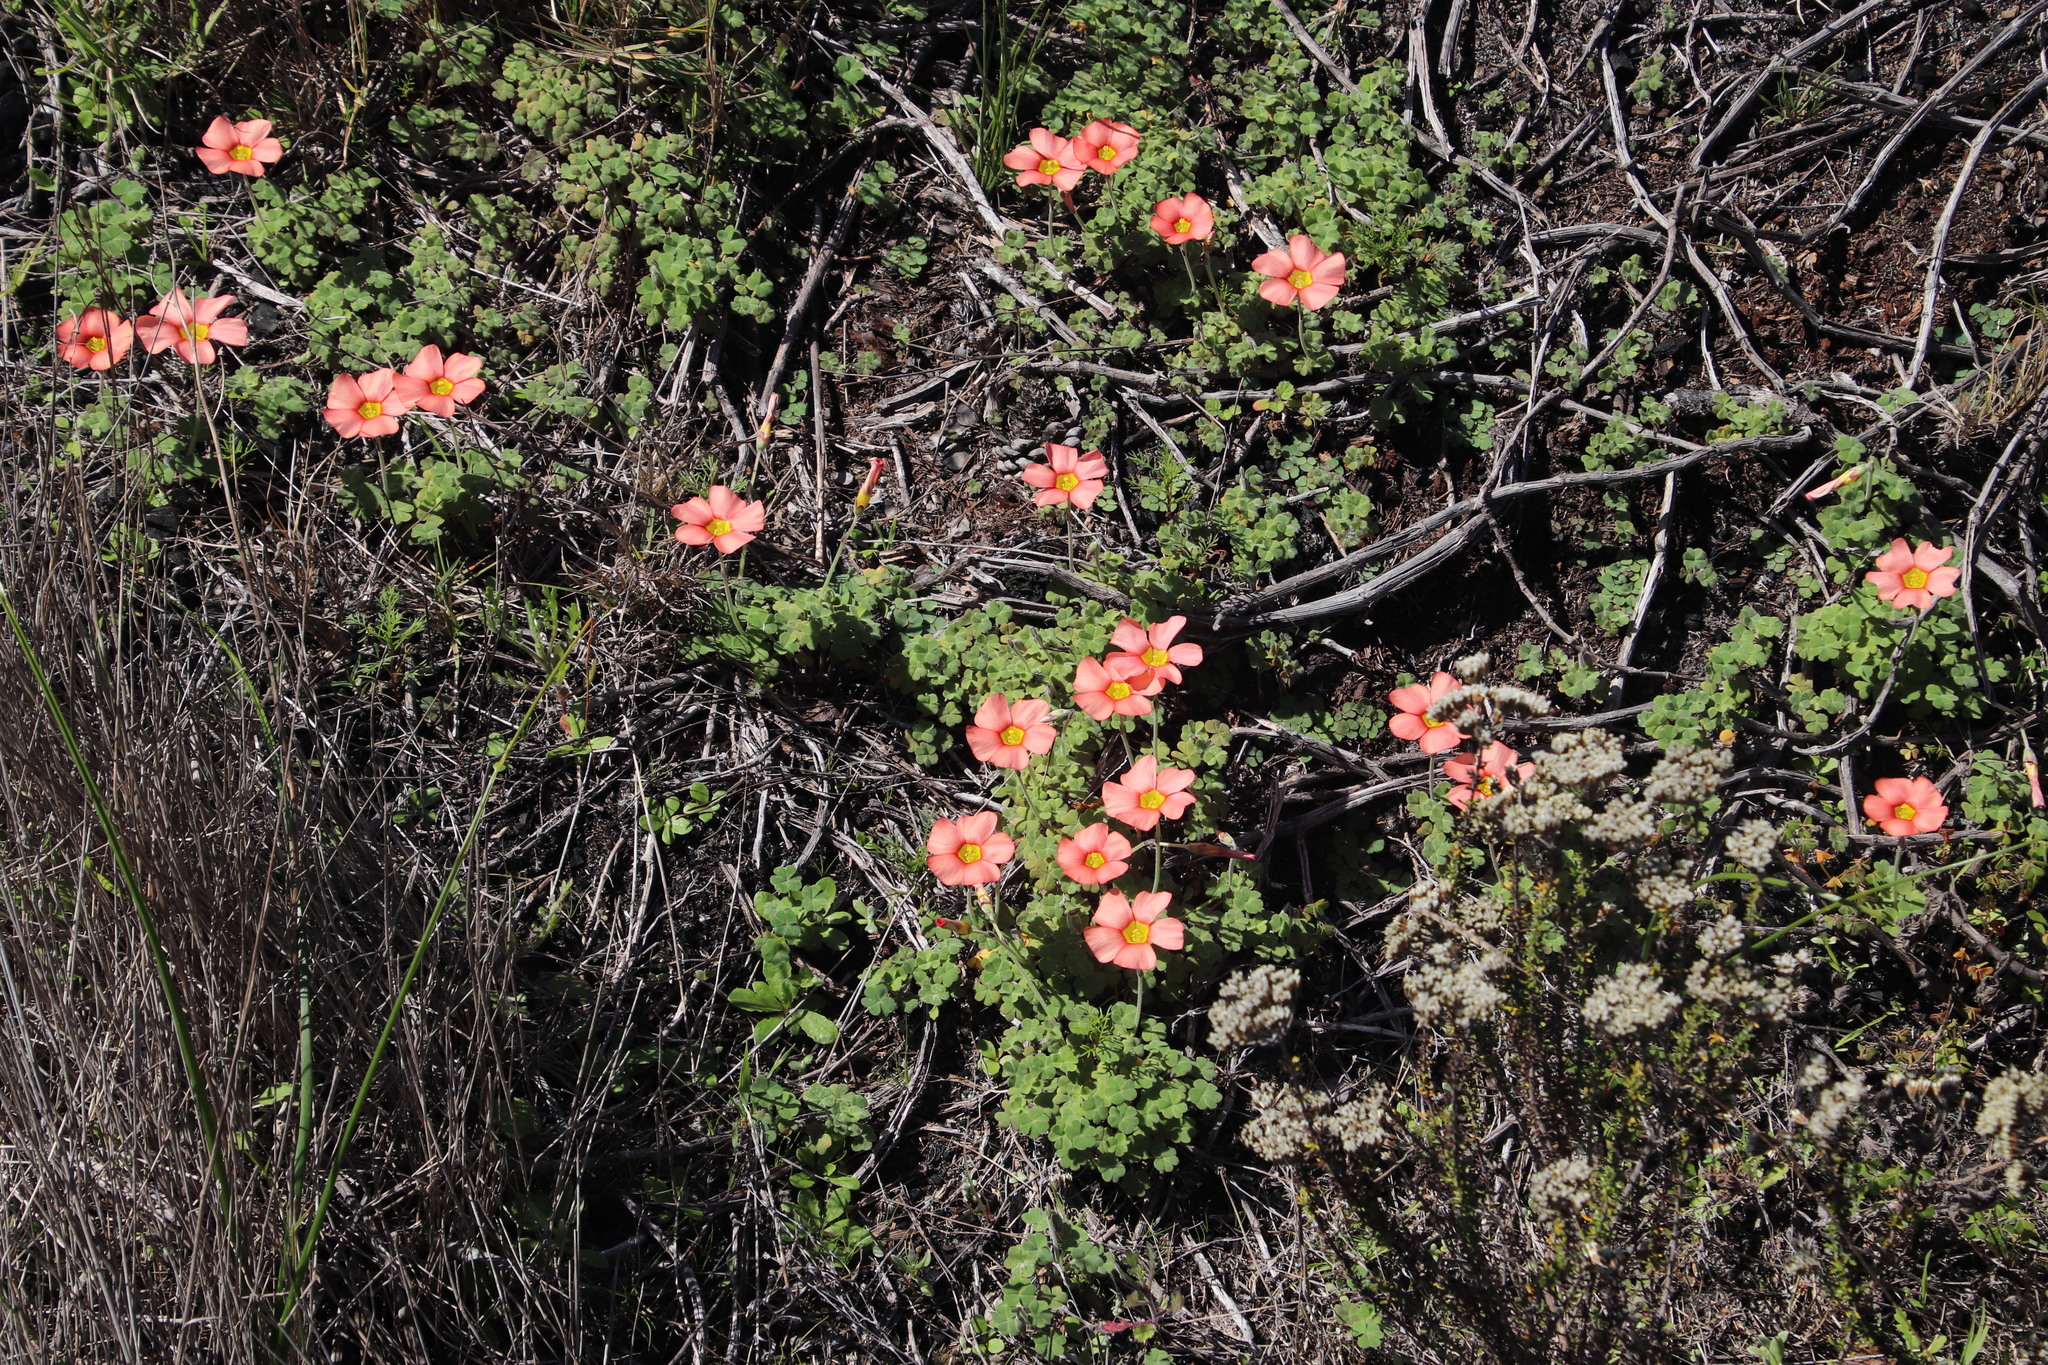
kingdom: Plantae
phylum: Tracheophyta
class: Magnoliopsida
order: Oxalidales
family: Oxalidaceae
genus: Oxalis
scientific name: Oxalis obtusa
